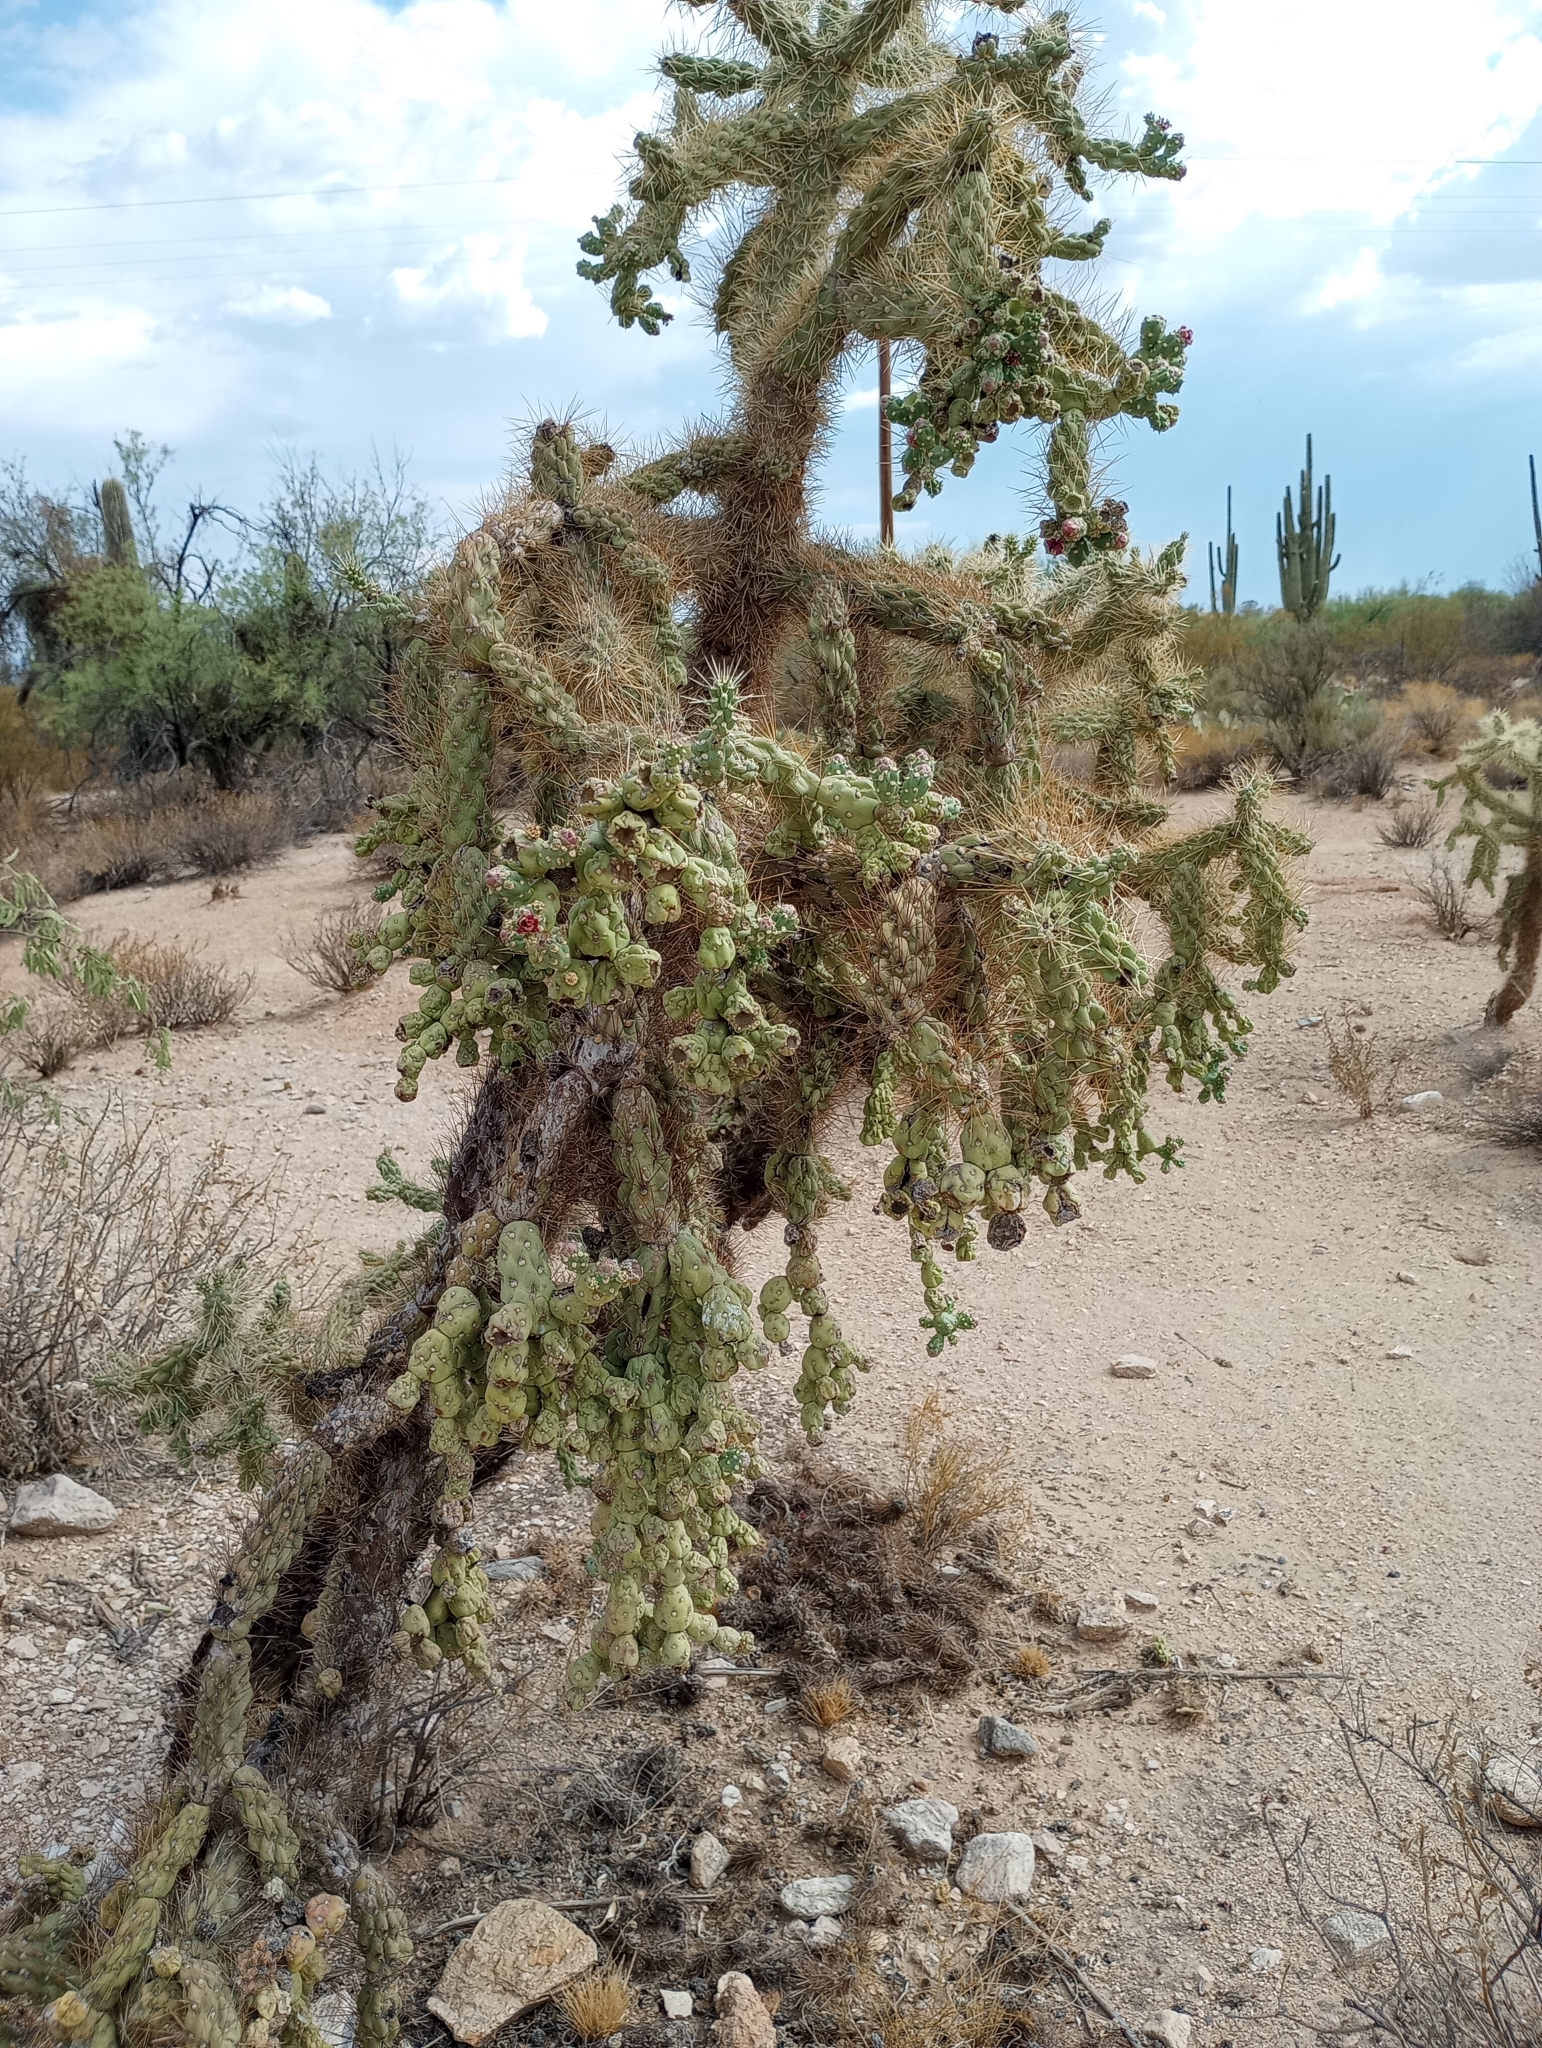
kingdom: Plantae
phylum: Tracheophyta
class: Magnoliopsida
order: Caryophyllales
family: Cactaceae
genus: Cylindropuntia
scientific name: Cylindropuntia fulgida
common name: Jumping cholla
